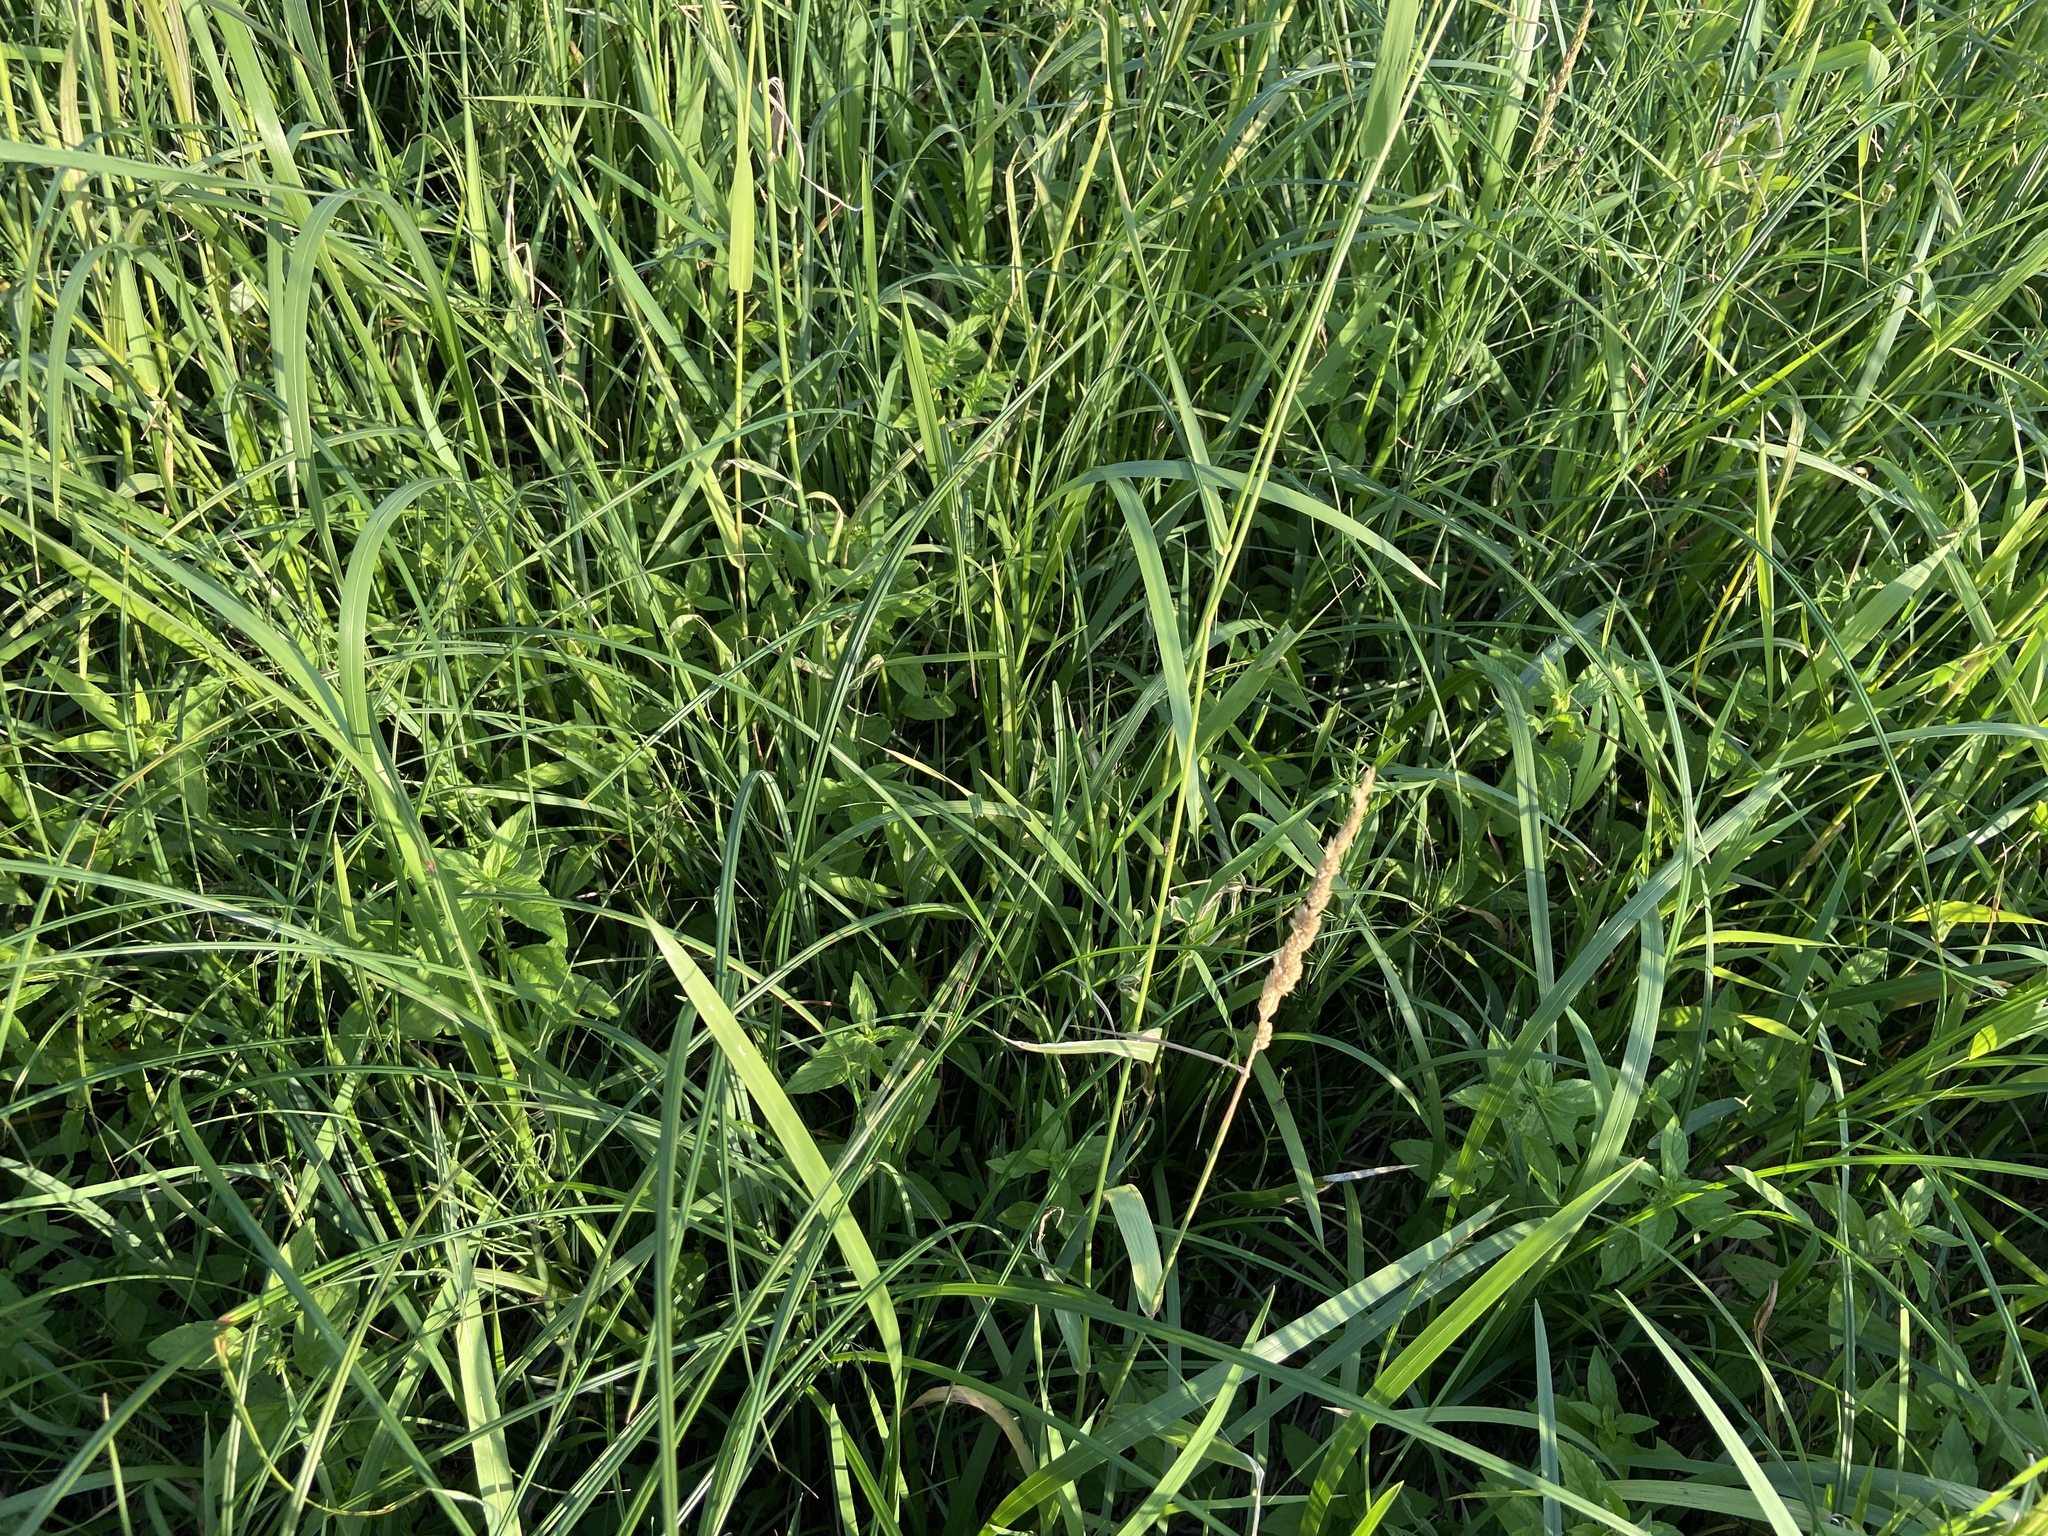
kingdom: Plantae
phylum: Tracheophyta
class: Liliopsida
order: Poales
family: Poaceae
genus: Phalaris
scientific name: Phalaris arundinacea
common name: Reed canary-grass
